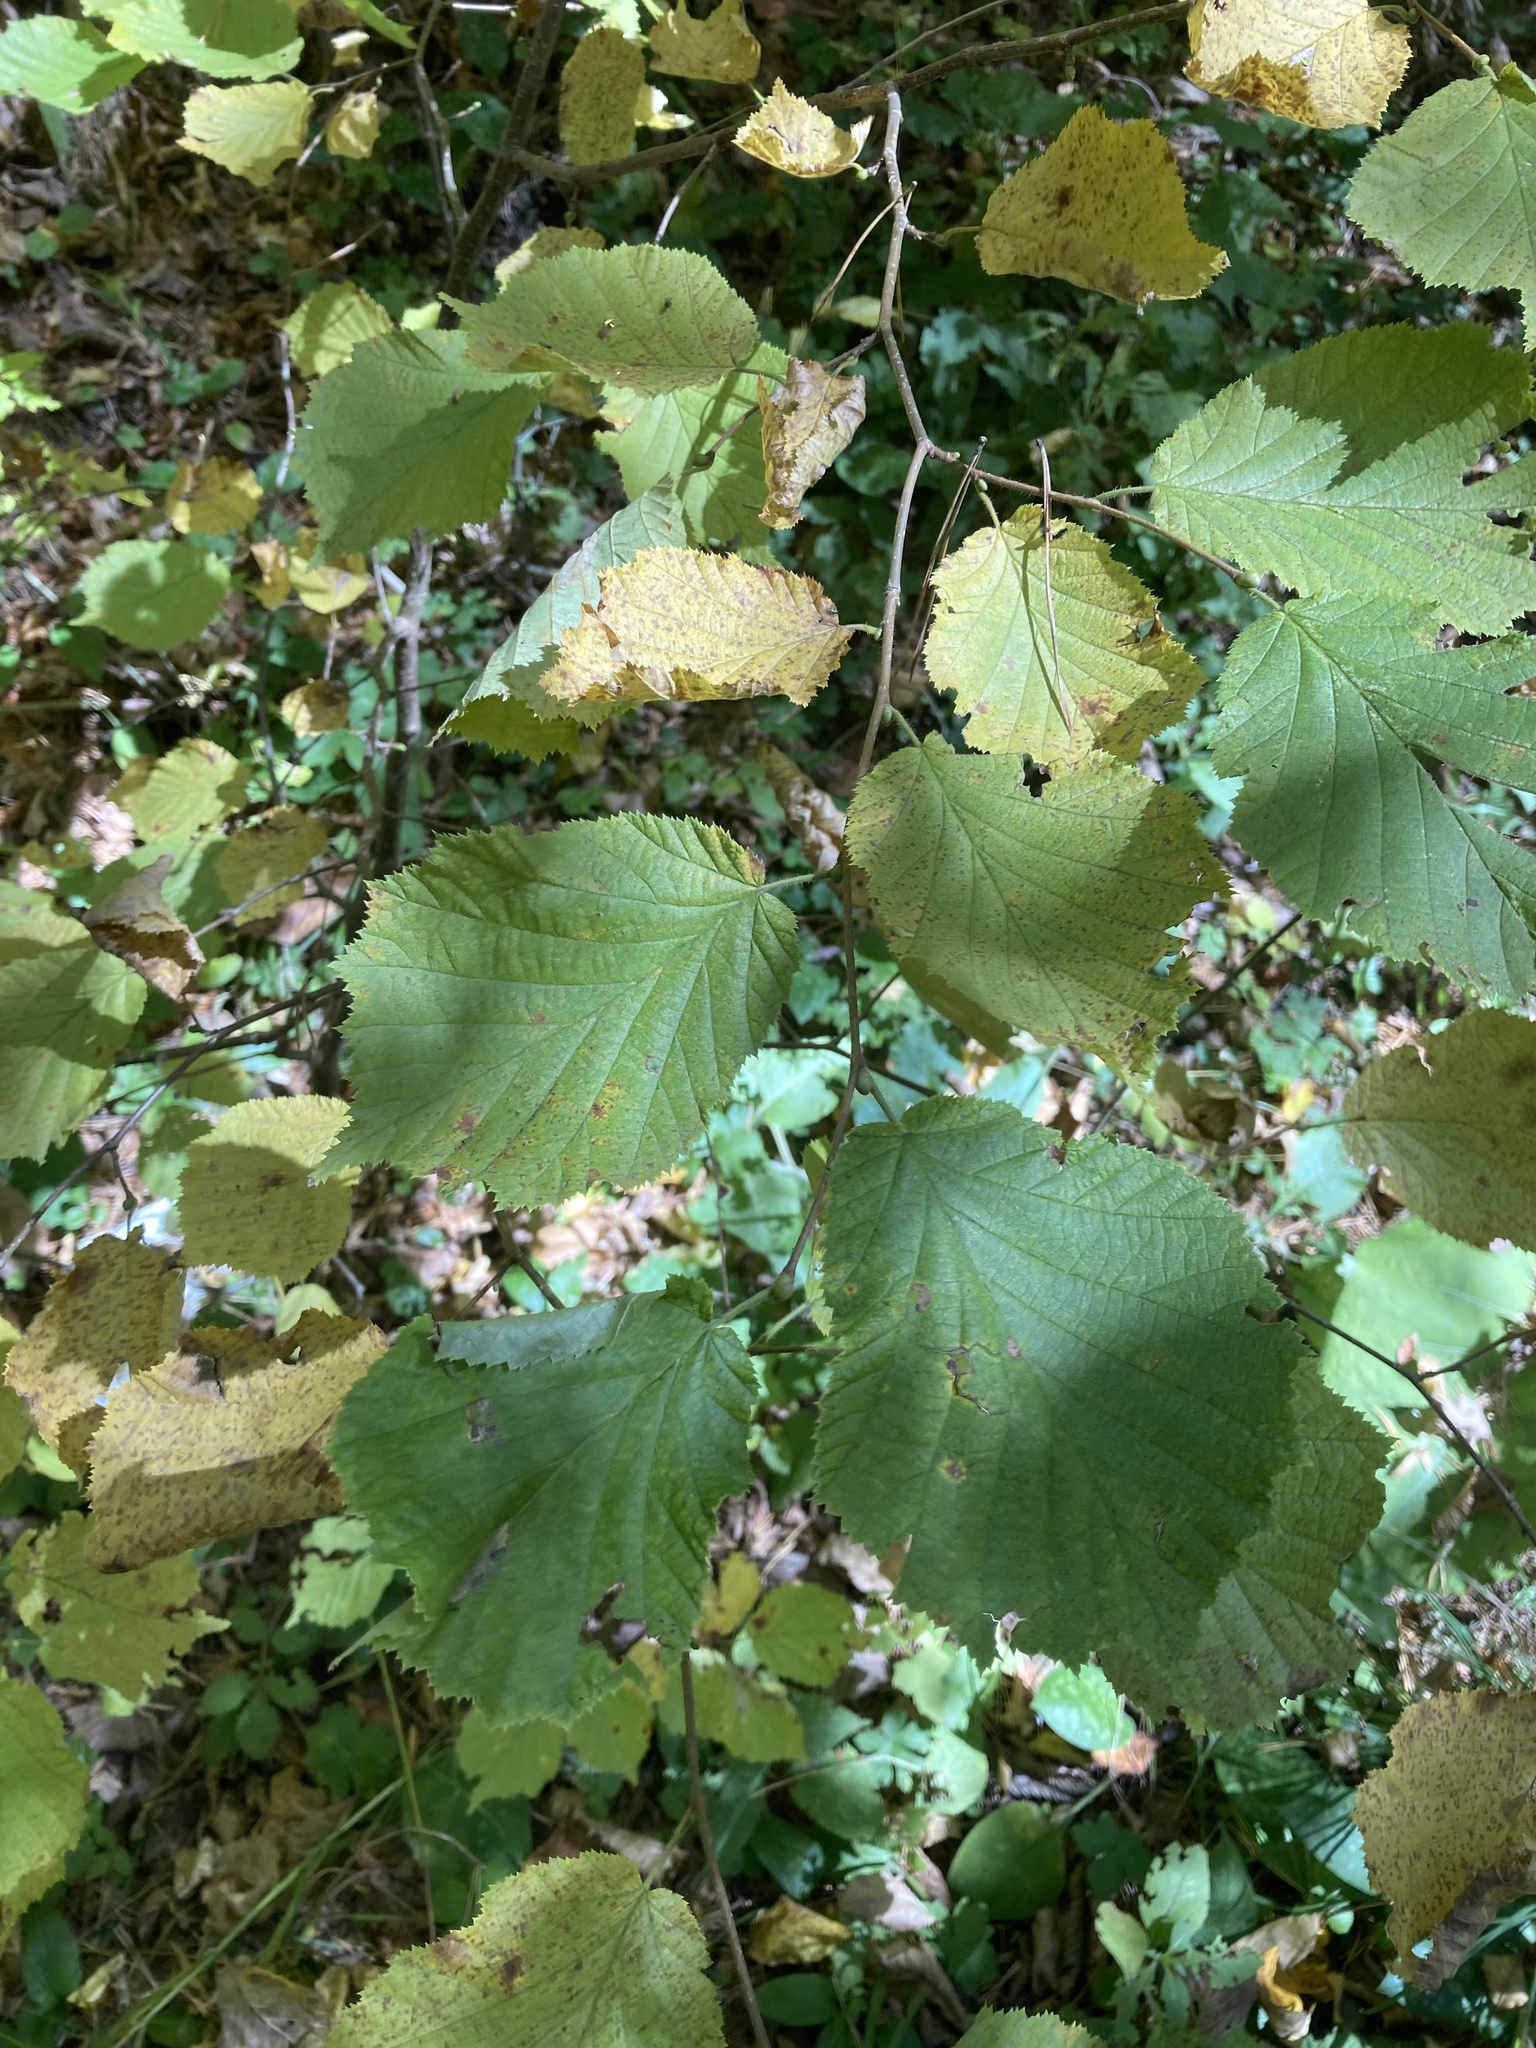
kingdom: Plantae
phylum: Tracheophyta
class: Magnoliopsida
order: Fagales
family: Betulaceae
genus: Corylus
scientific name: Corylus avellana
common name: European hazel
